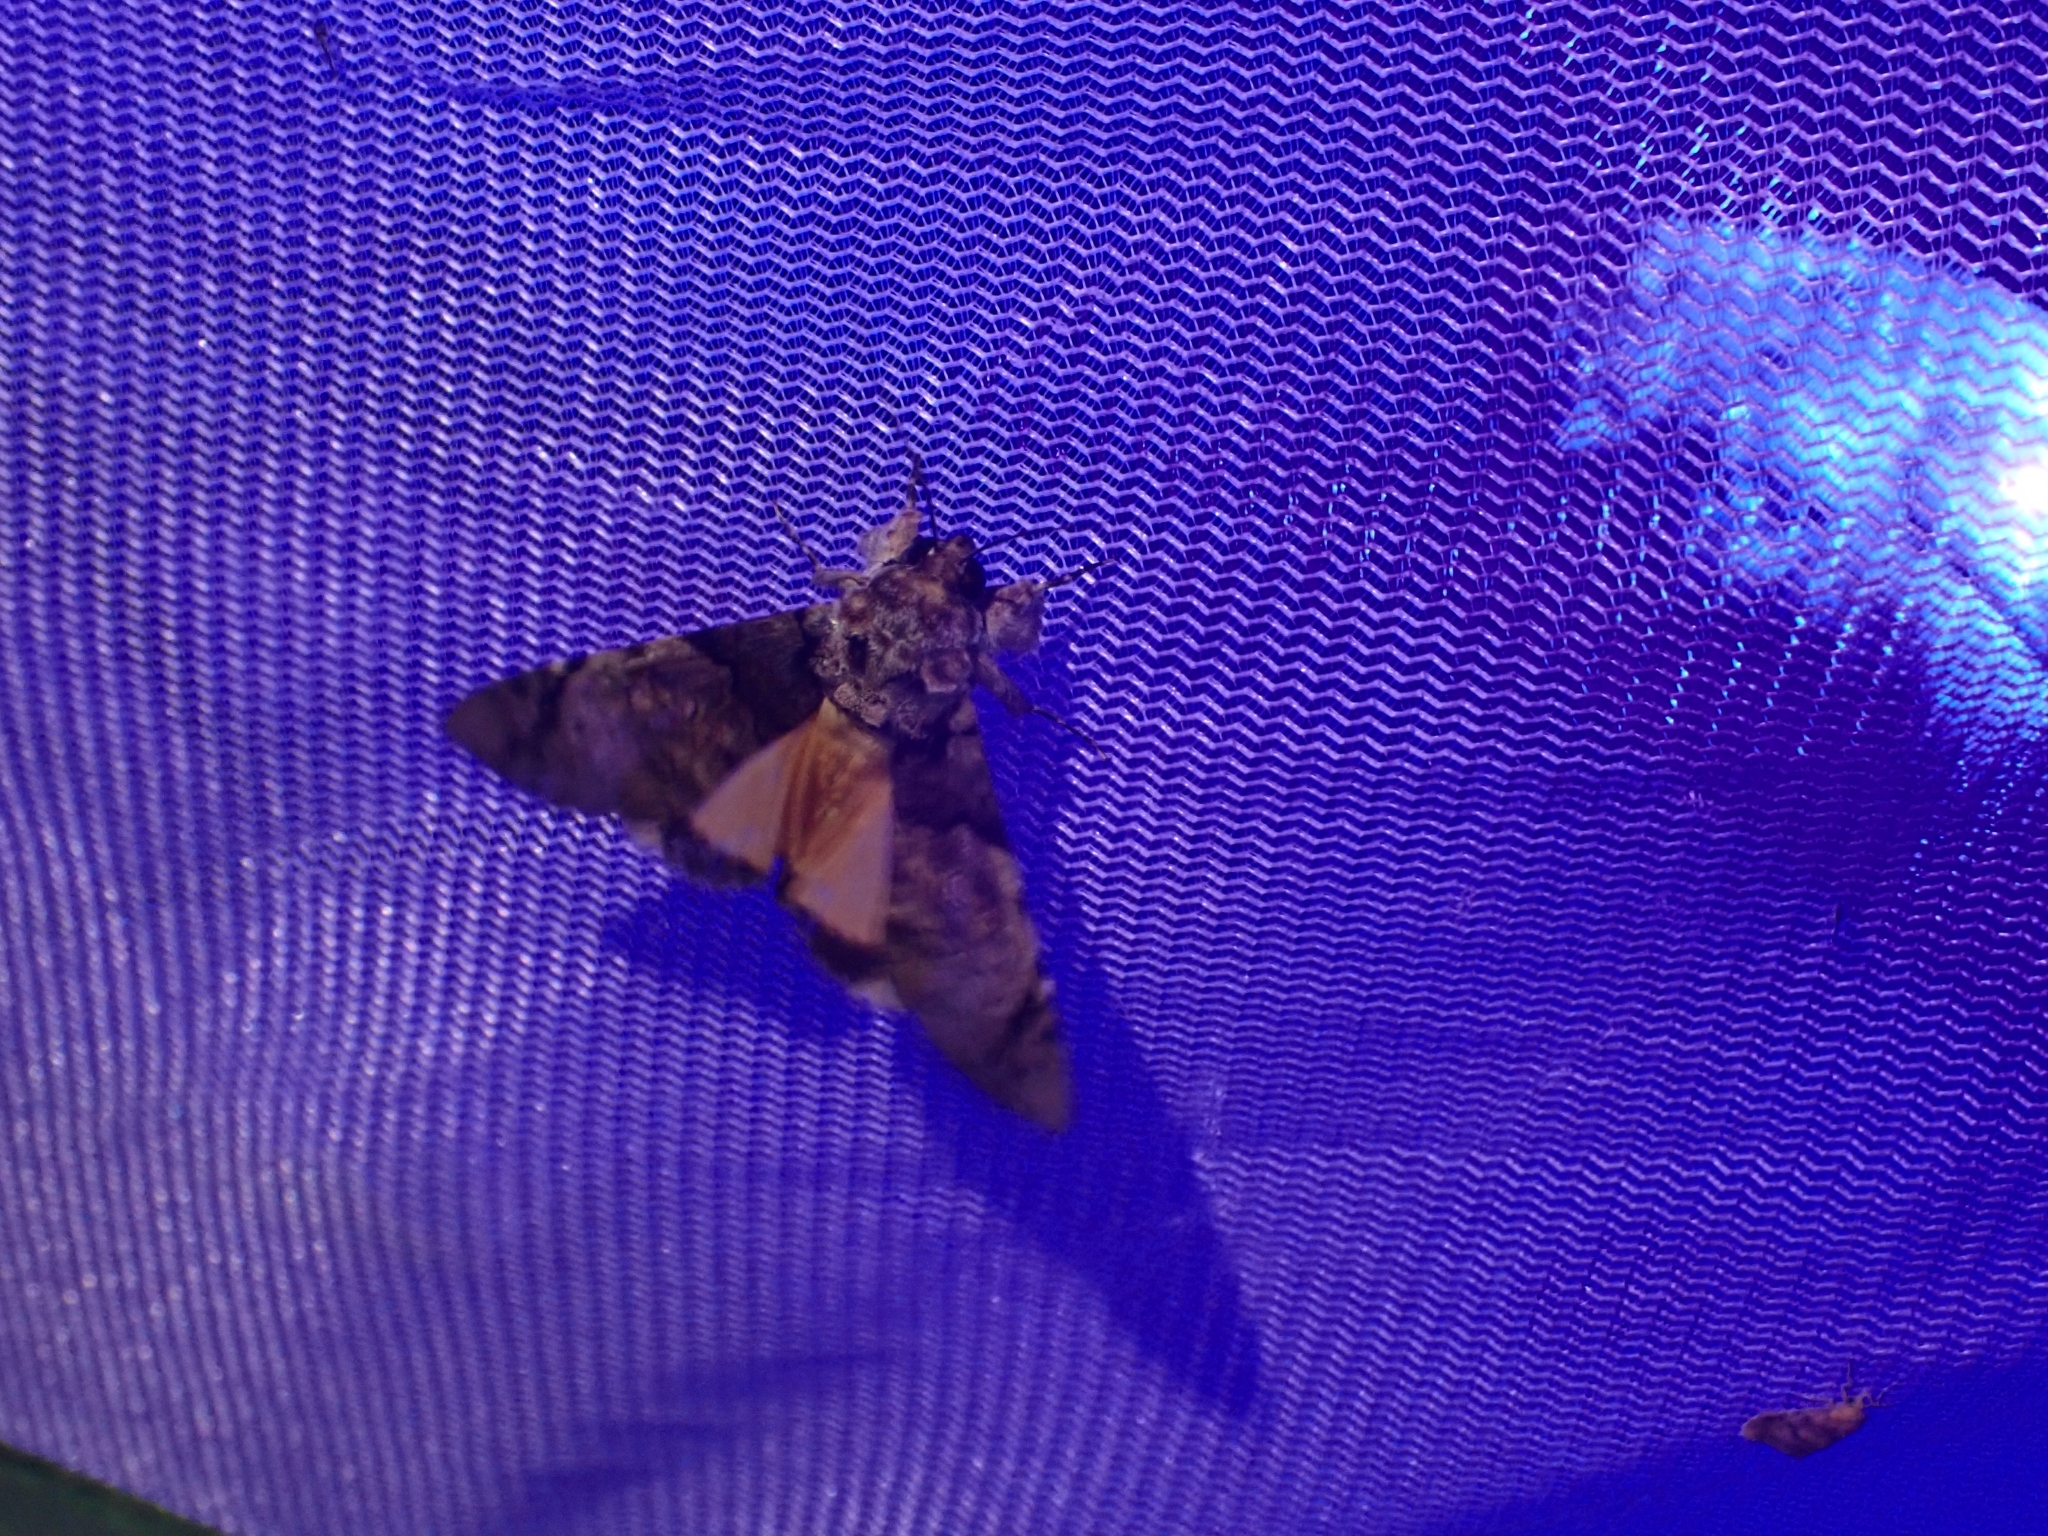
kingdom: Animalia
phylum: Arthropoda
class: Insecta
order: Lepidoptera
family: Erebidae
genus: Ulotrichopus
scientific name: Ulotrichopus variegata
